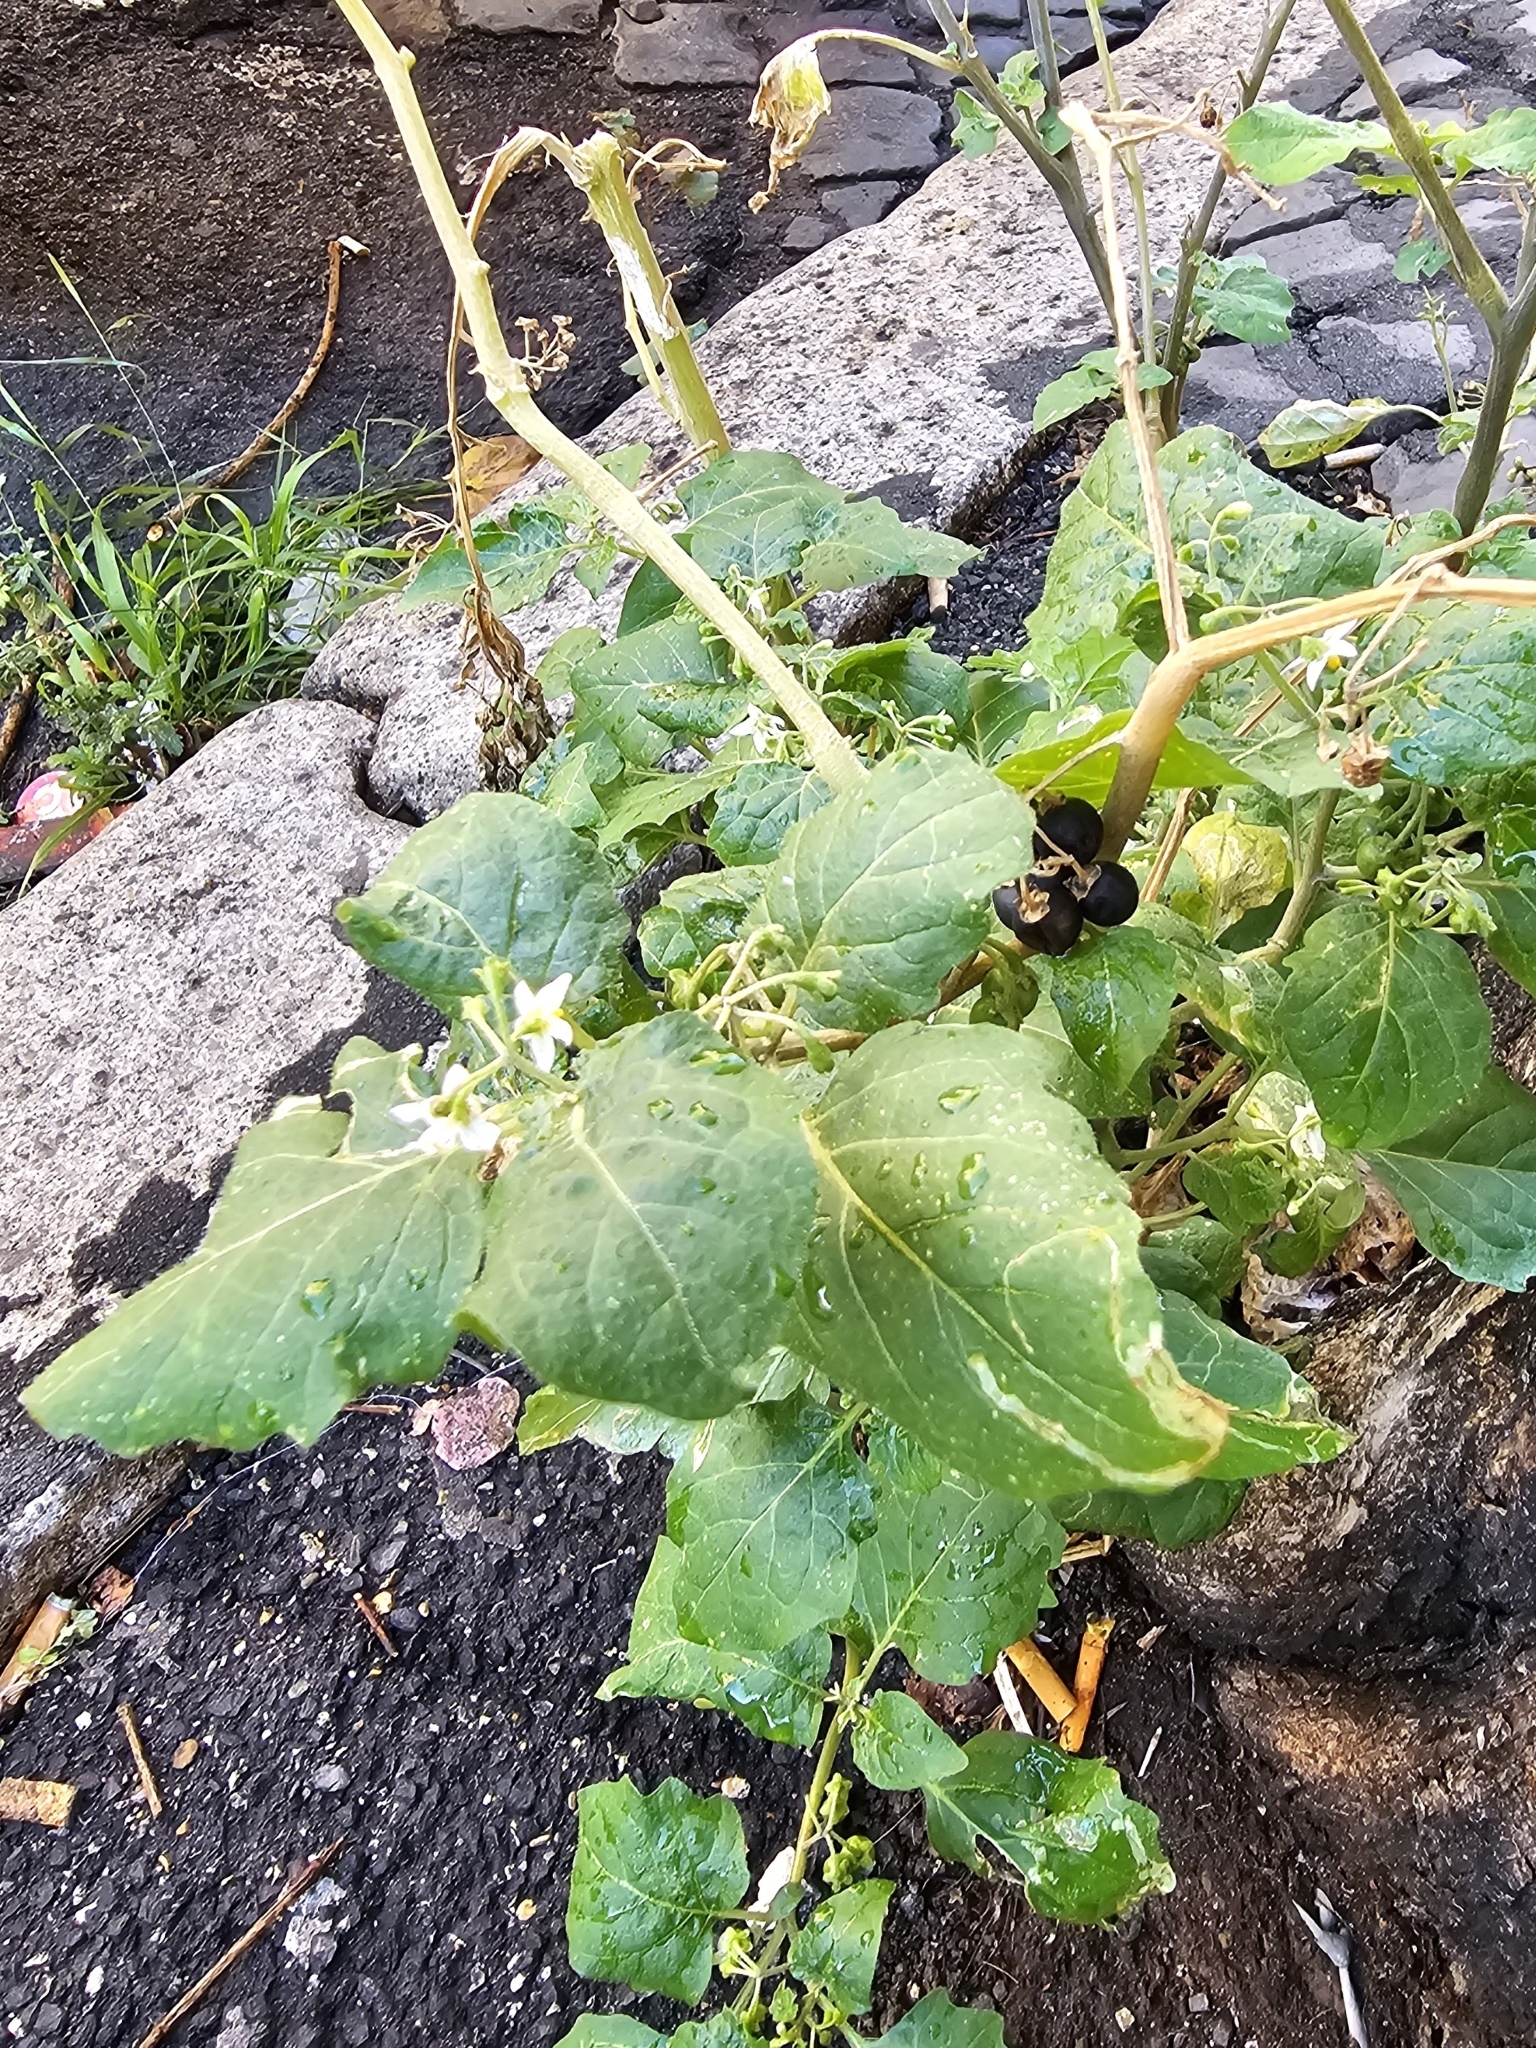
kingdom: Plantae
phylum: Tracheophyta
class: Magnoliopsida
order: Solanales
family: Solanaceae
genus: Solanum
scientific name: Solanum nigrum
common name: Black nightshade
